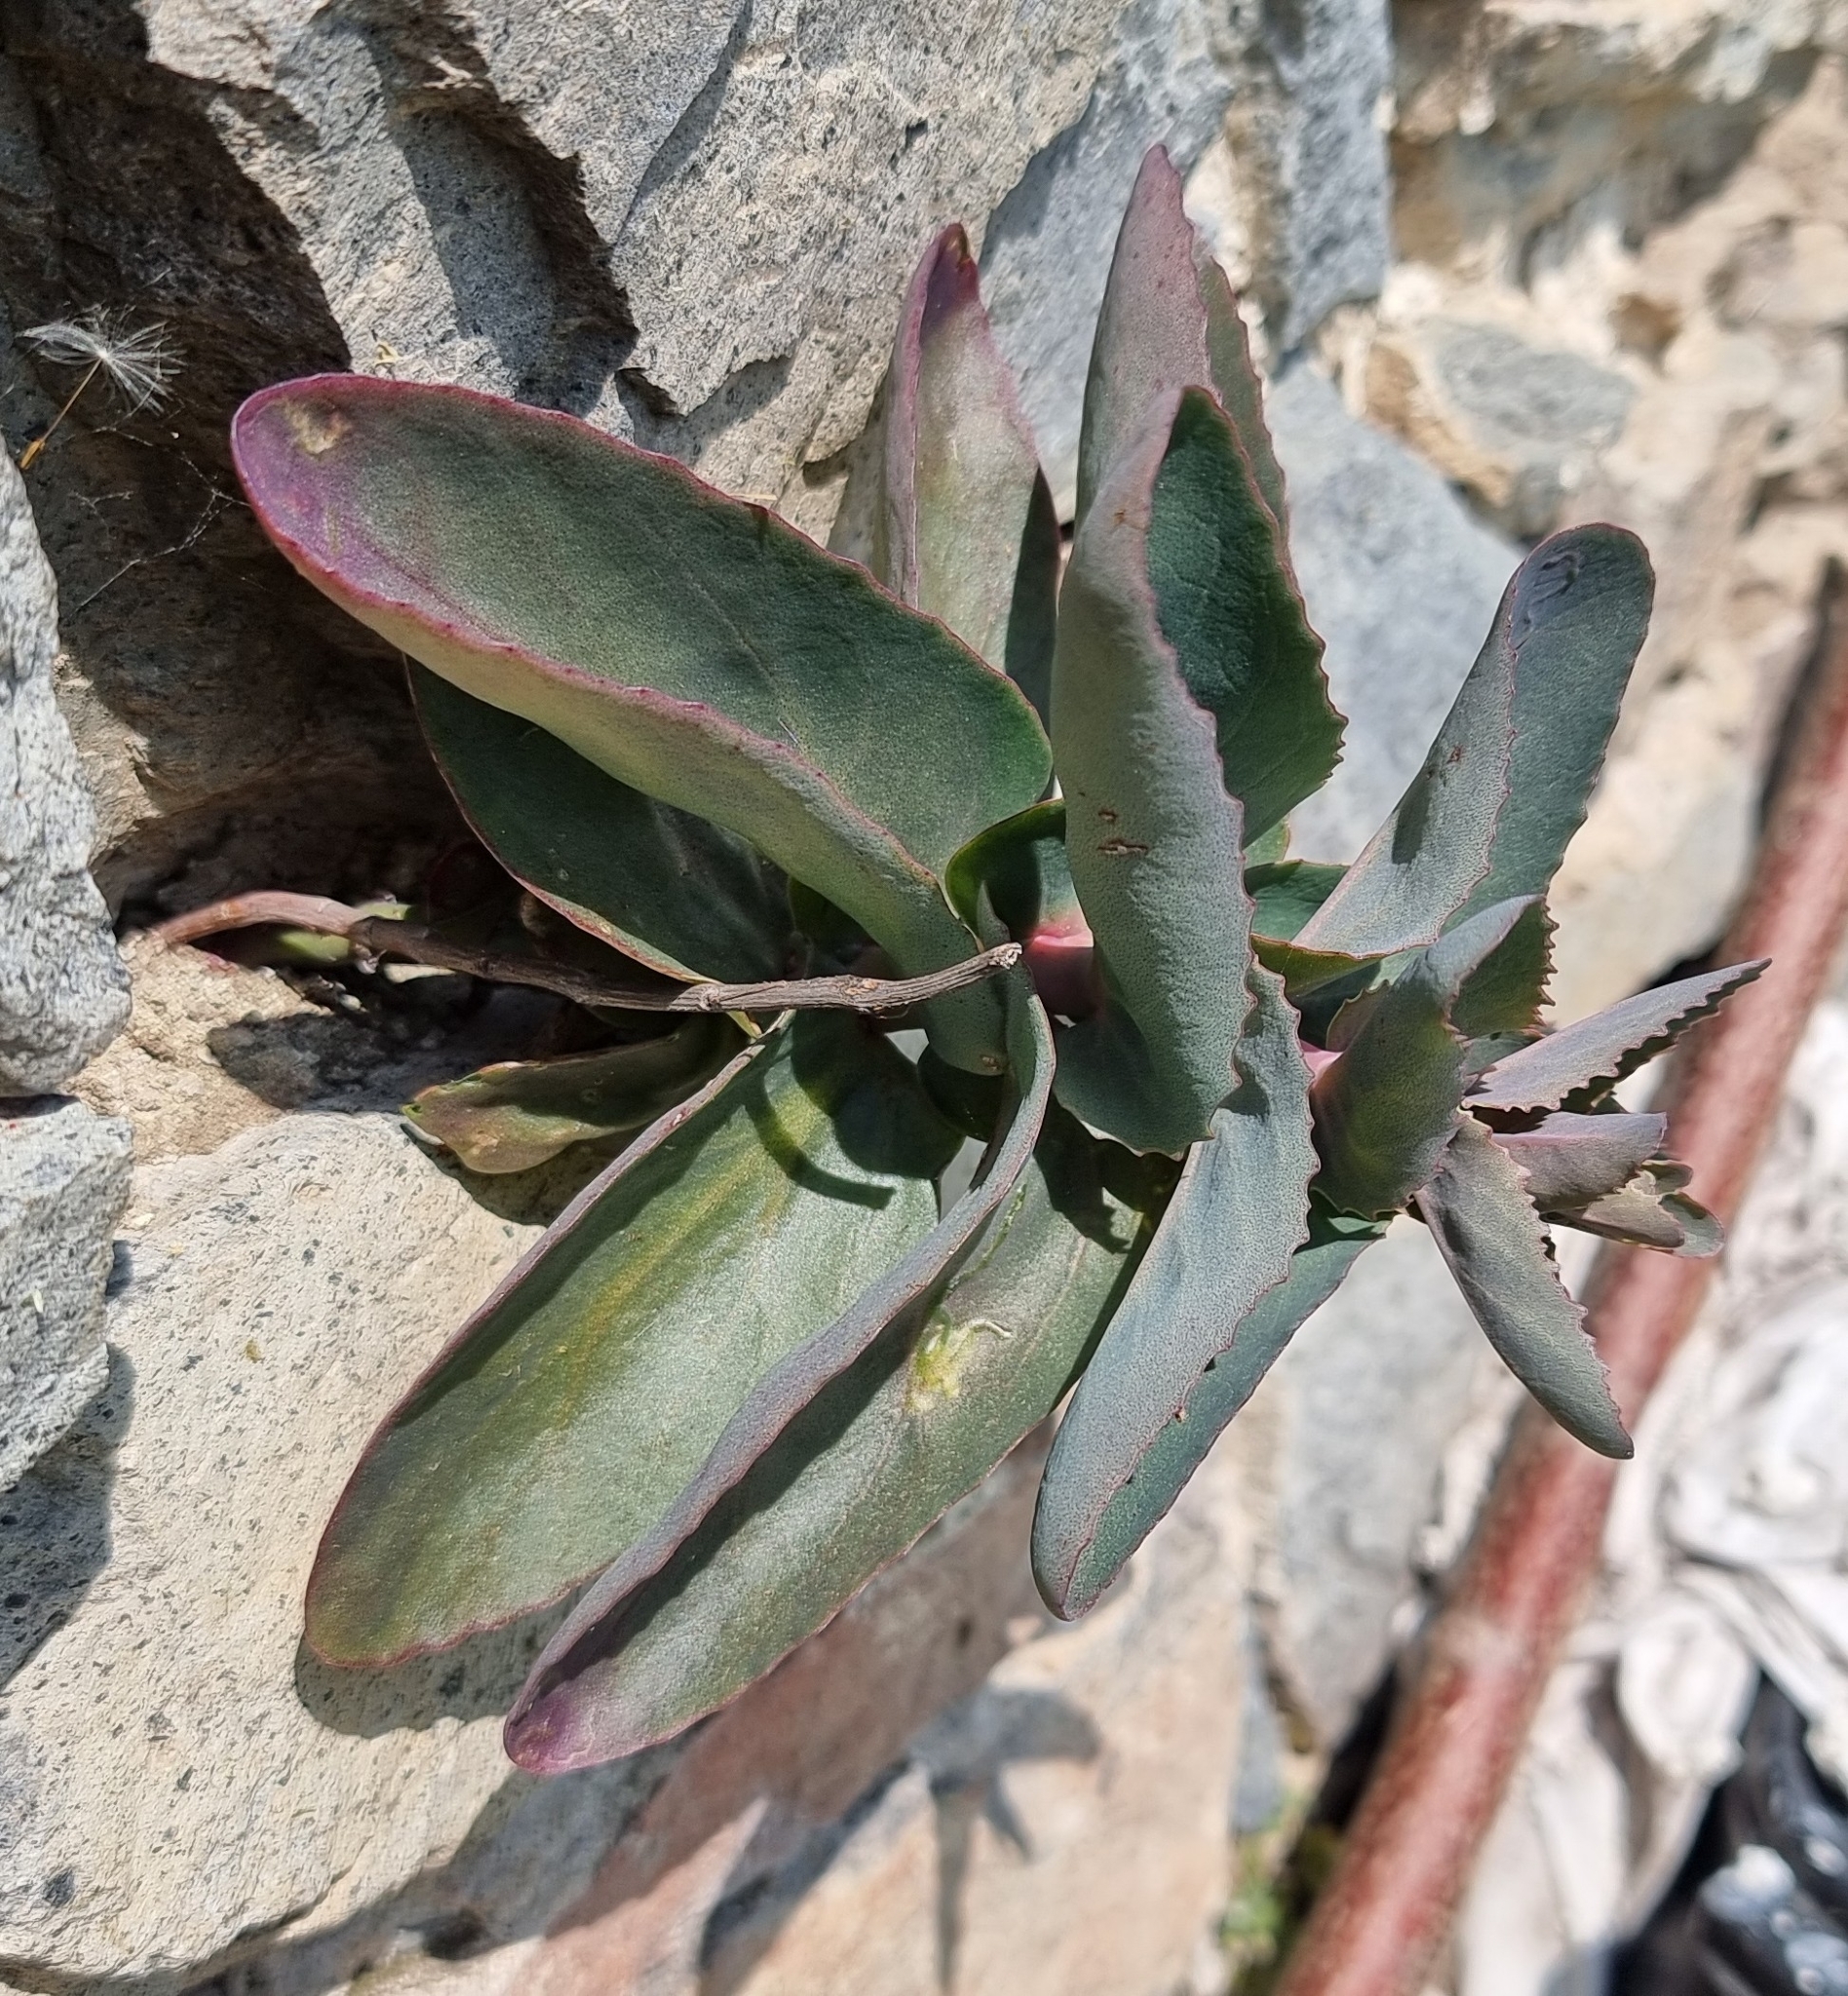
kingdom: Plantae
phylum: Tracheophyta
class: Magnoliopsida
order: Saxifragales
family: Crassulaceae
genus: Hylotelephium
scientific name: Hylotelephium maximum
